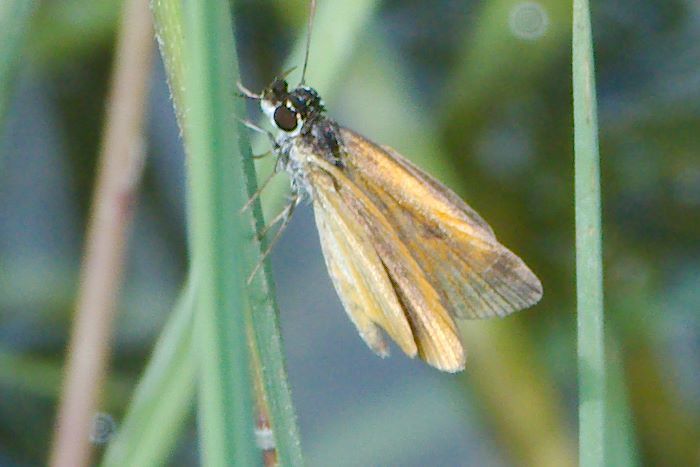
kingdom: Animalia
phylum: Arthropoda
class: Insecta
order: Lepidoptera
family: Hesperiidae
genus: Ancyloxypha
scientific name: Ancyloxypha numitor
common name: Least skipper
